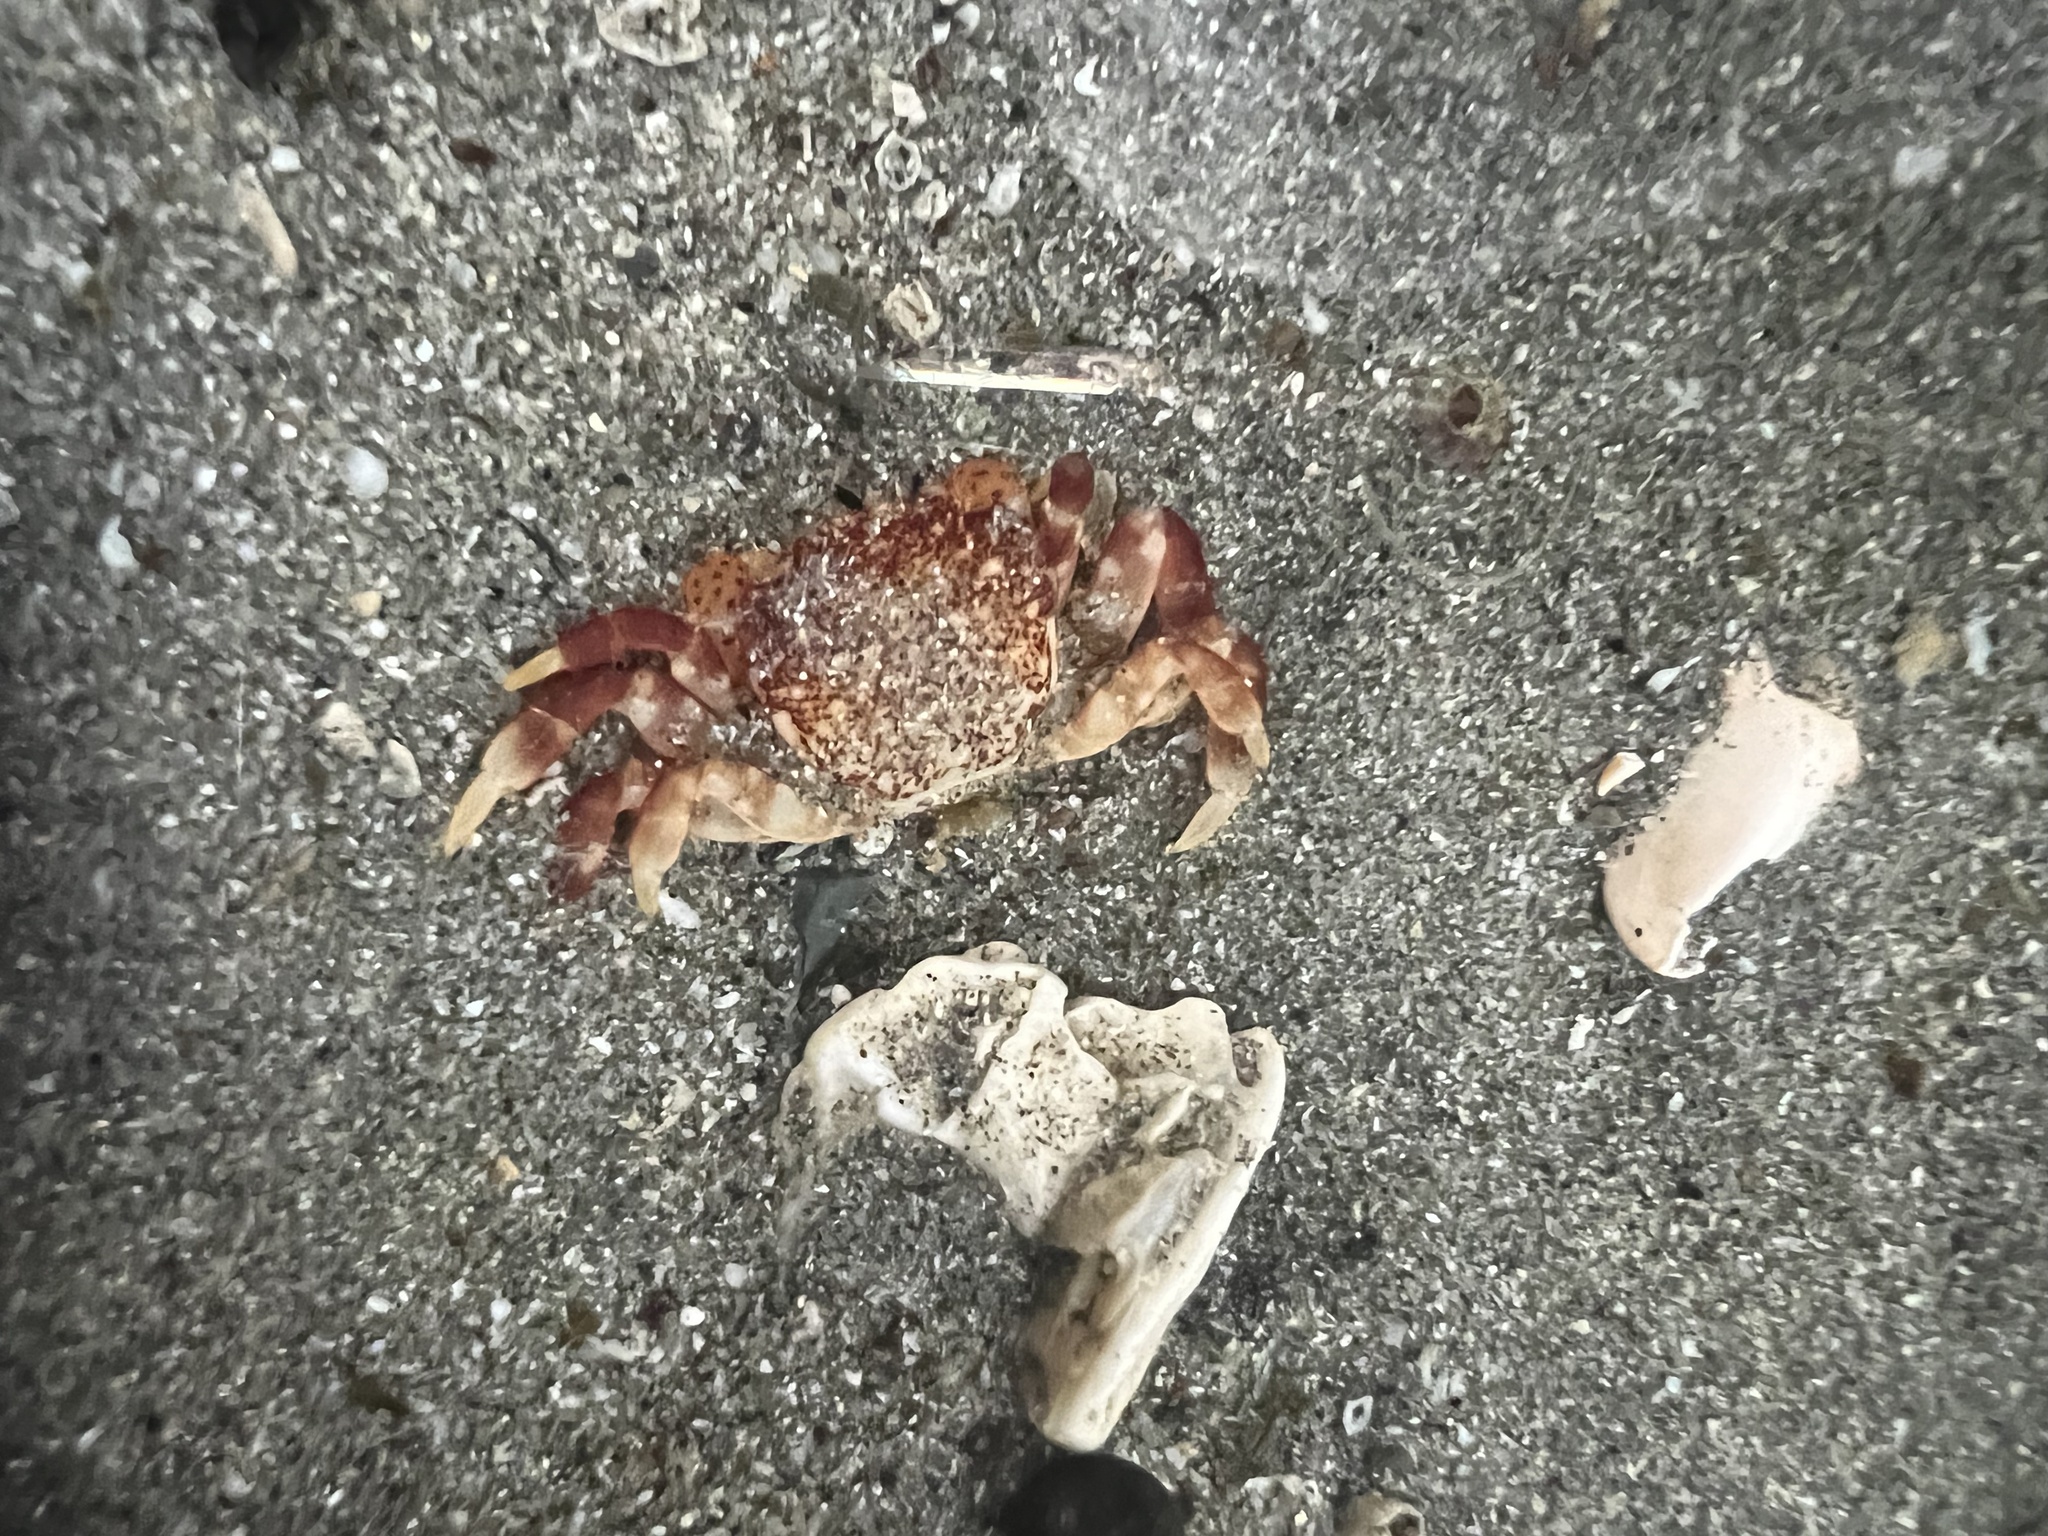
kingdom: Animalia
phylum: Arthropoda
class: Malacostraca
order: Decapoda
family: Varunidae
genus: Hemigrapsus
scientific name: Hemigrapsus nudus
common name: Purple shore crab
